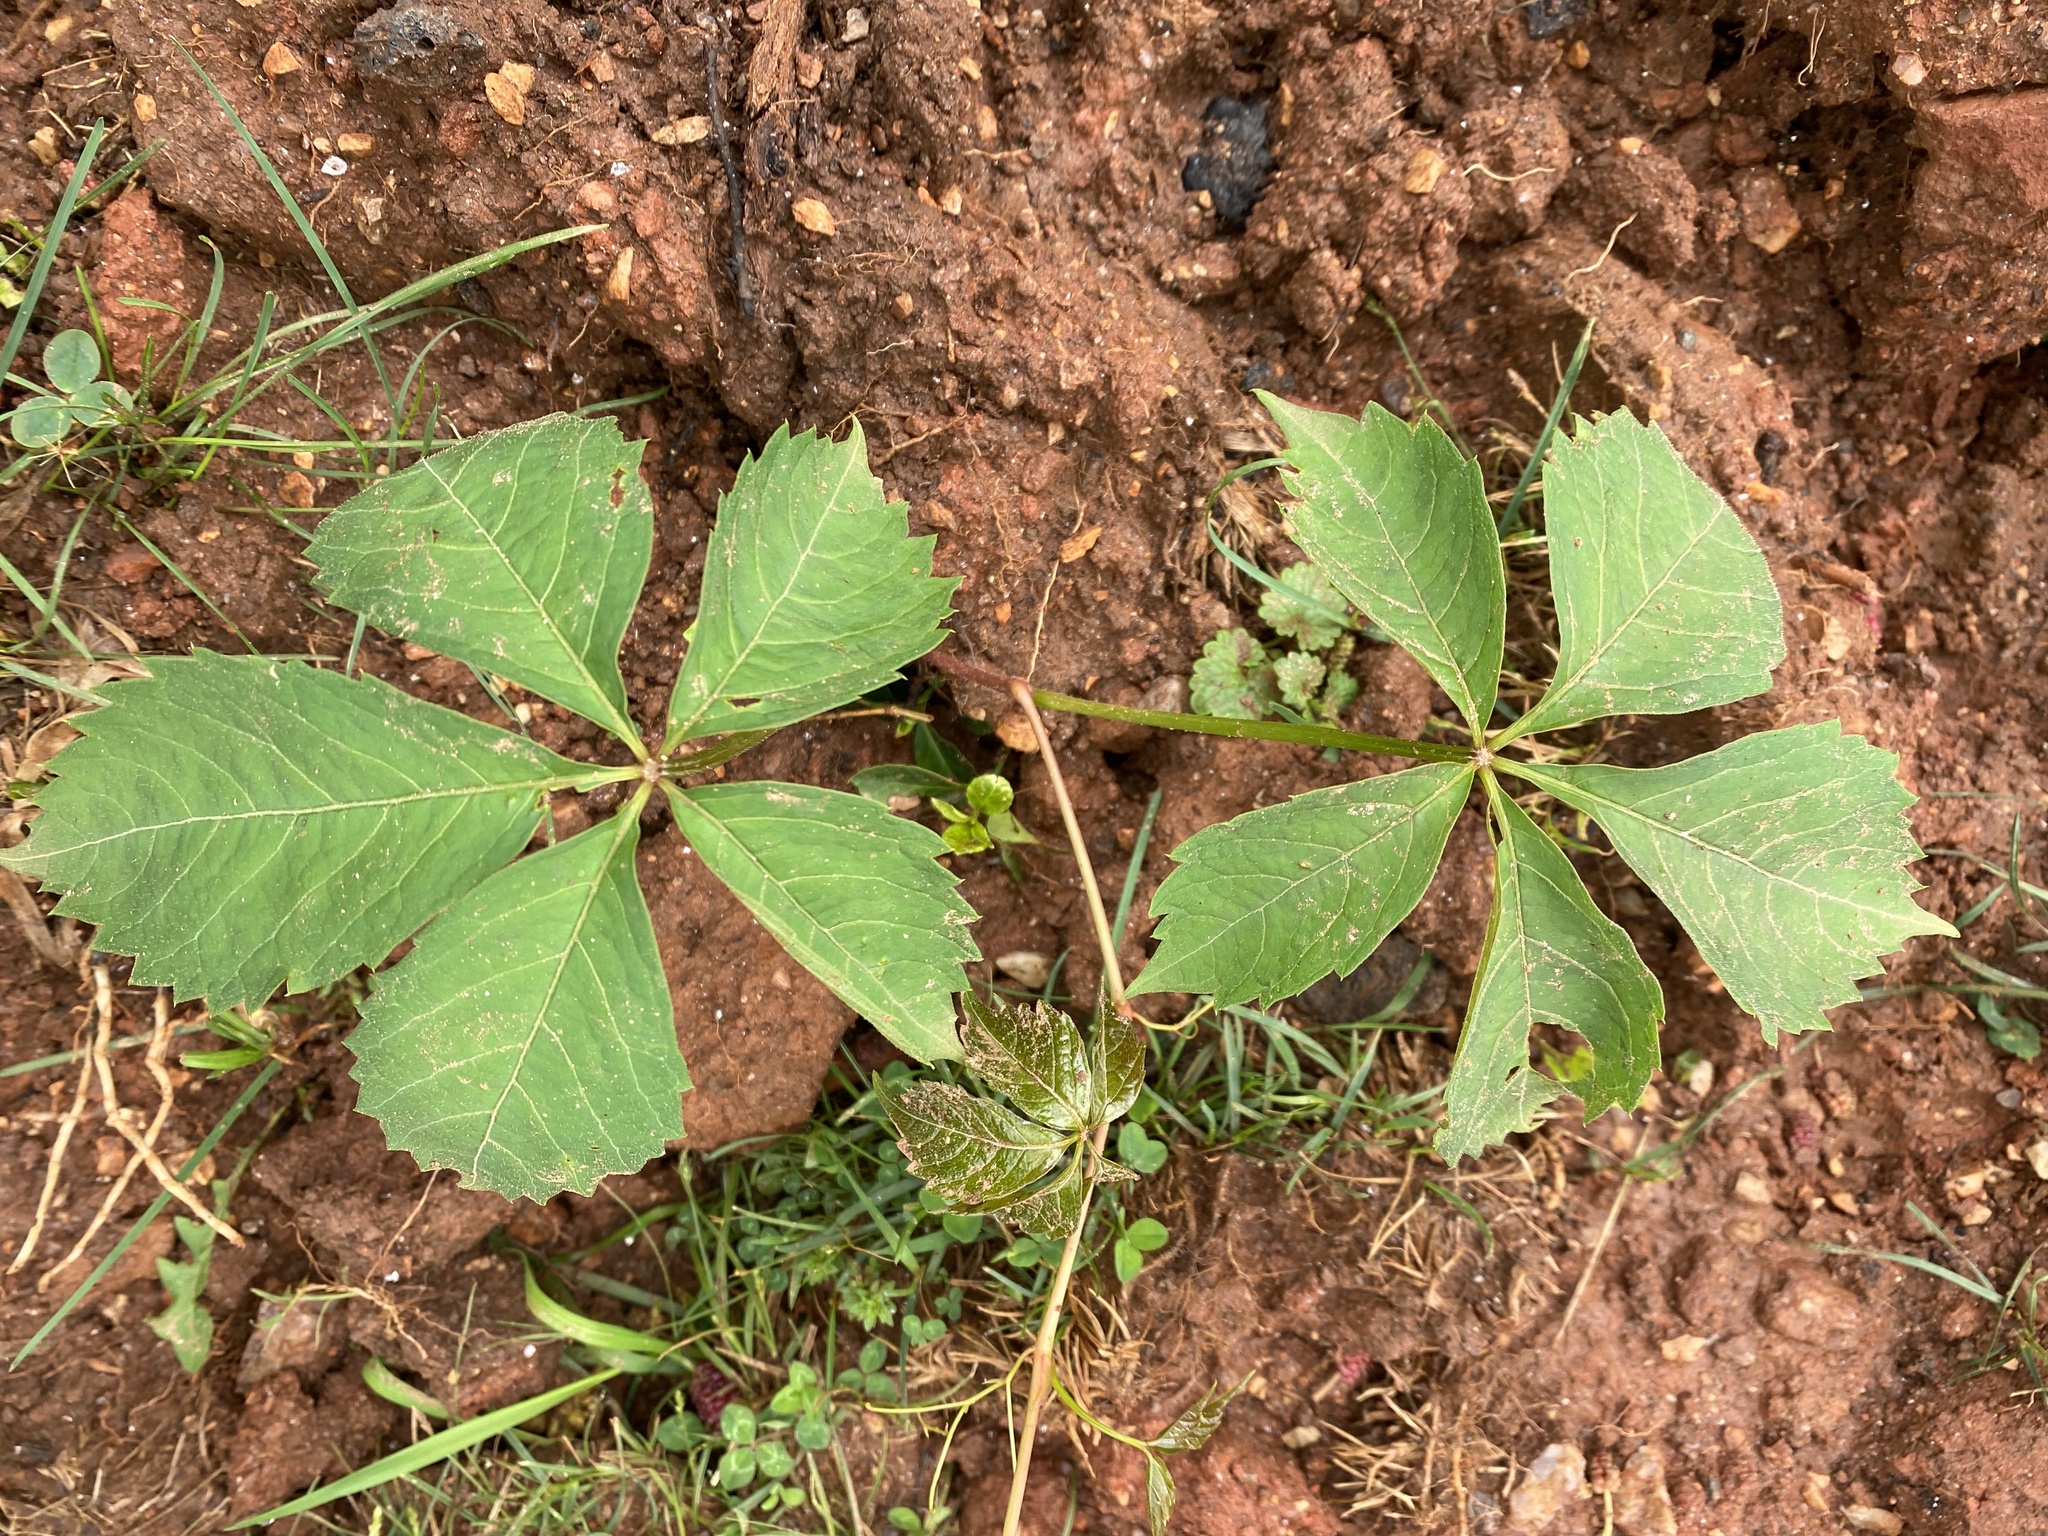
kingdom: Plantae
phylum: Tracheophyta
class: Magnoliopsida
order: Vitales
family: Vitaceae
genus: Parthenocissus
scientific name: Parthenocissus quinquefolia
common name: Virginia-creeper
